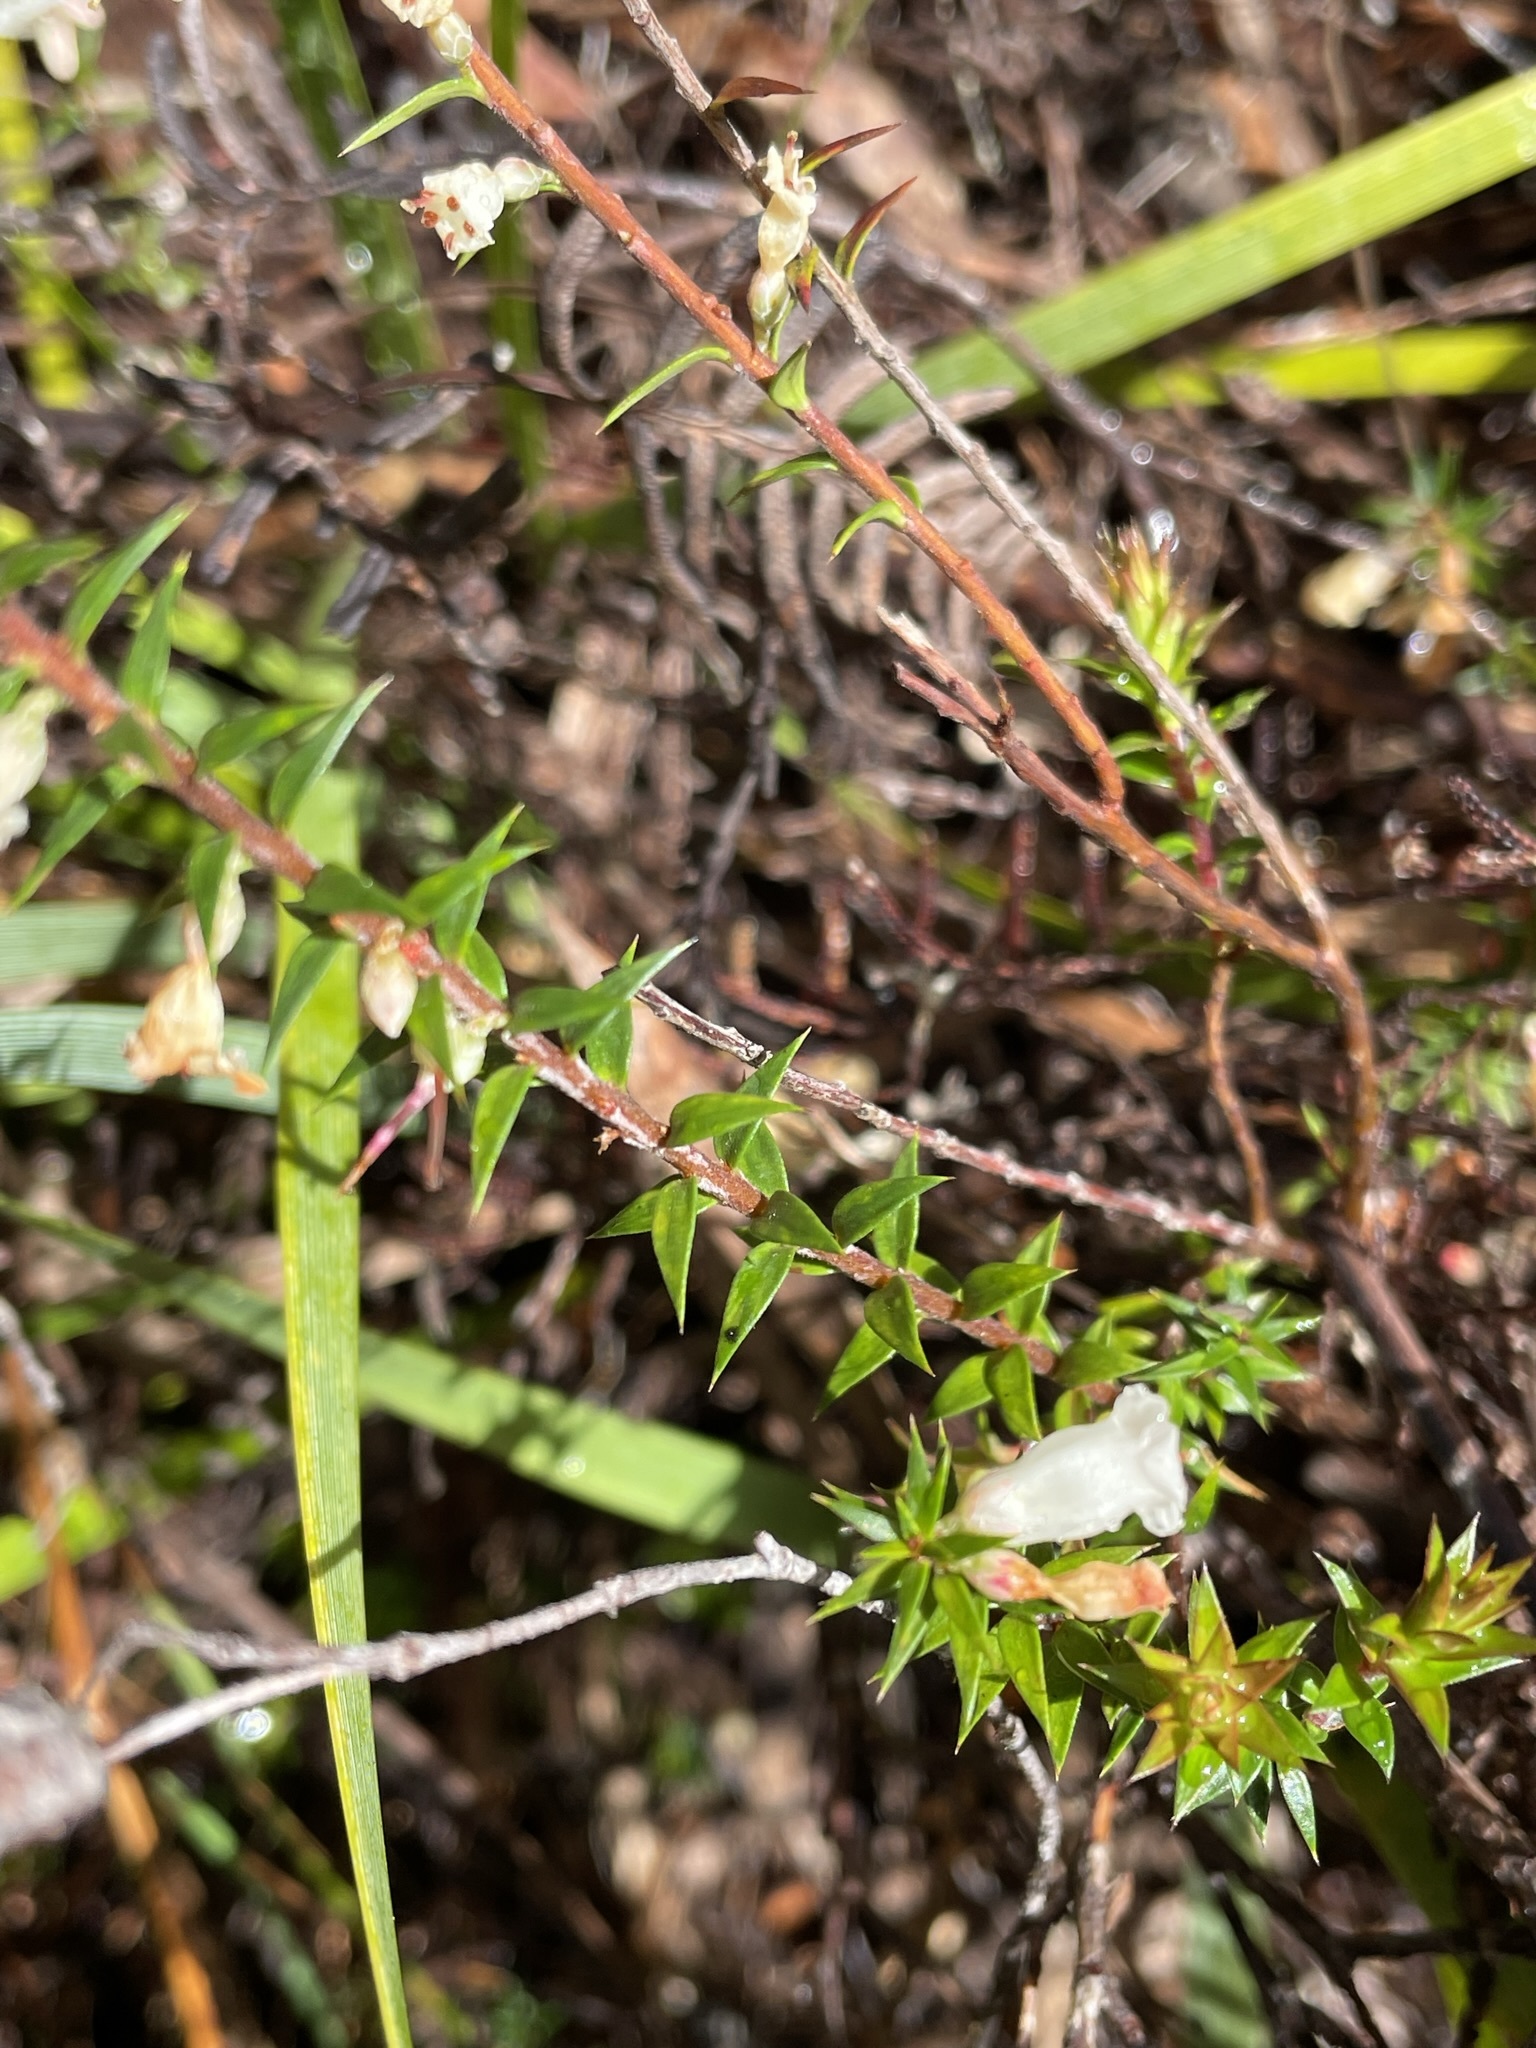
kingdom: Plantae
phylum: Tracheophyta
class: Magnoliopsida
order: Ericales
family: Ericaceae
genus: Epacris
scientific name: Epacris impressa
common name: Common-heath
